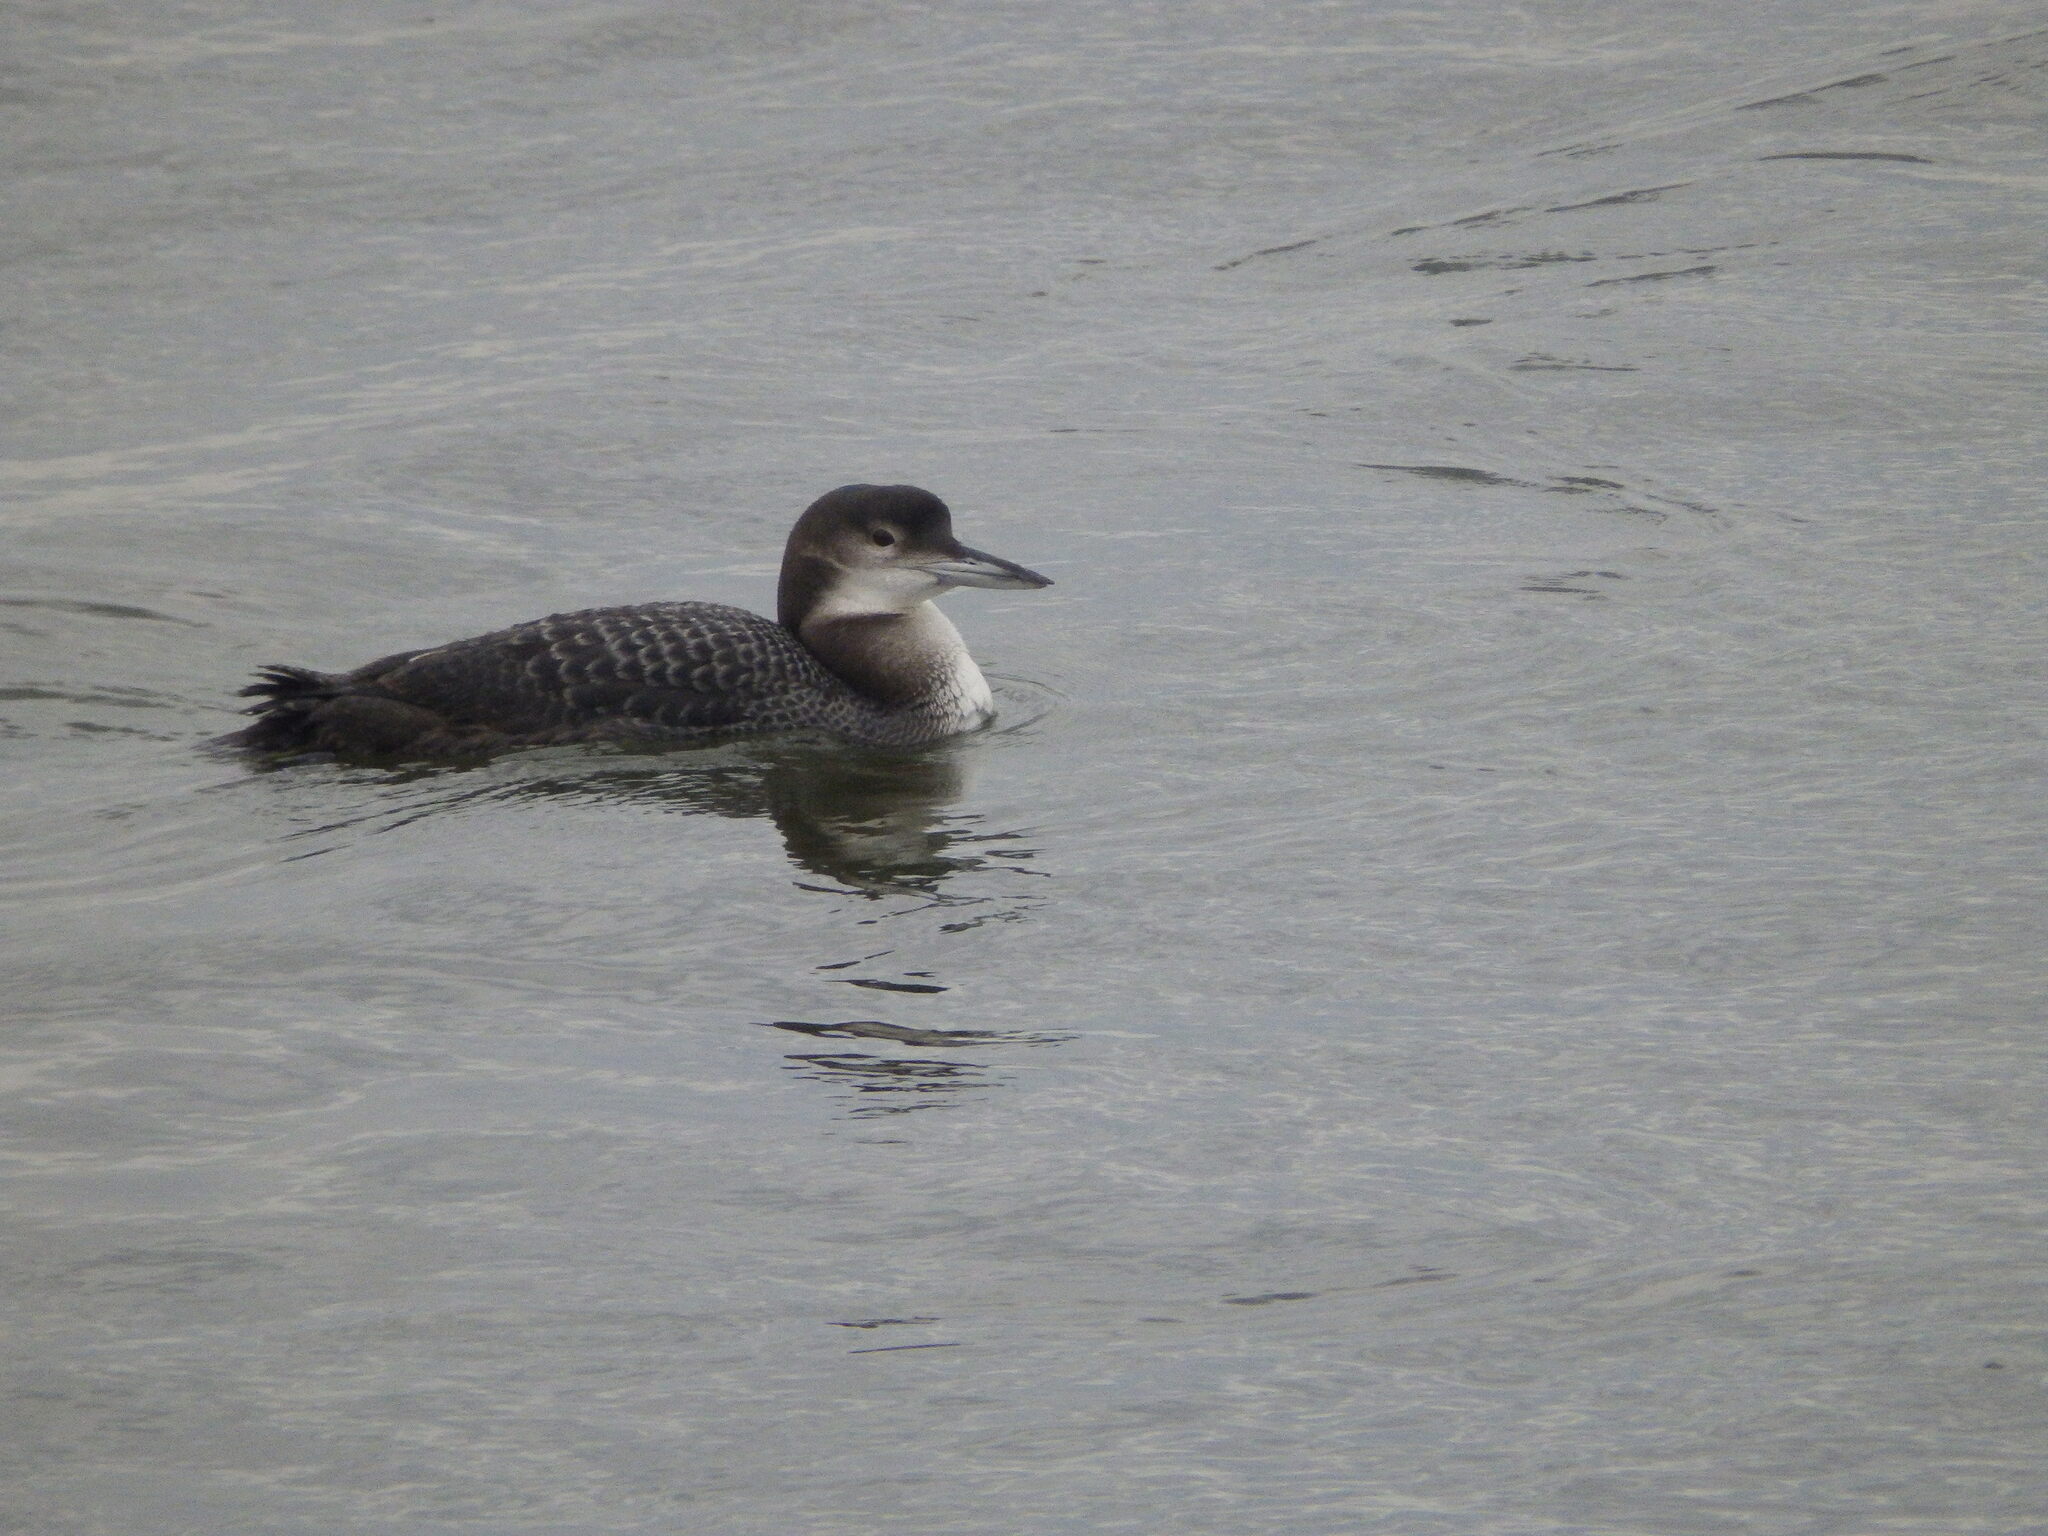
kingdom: Animalia
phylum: Chordata
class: Aves
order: Gaviiformes
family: Gaviidae
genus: Gavia
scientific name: Gavia immer
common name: Common loon
